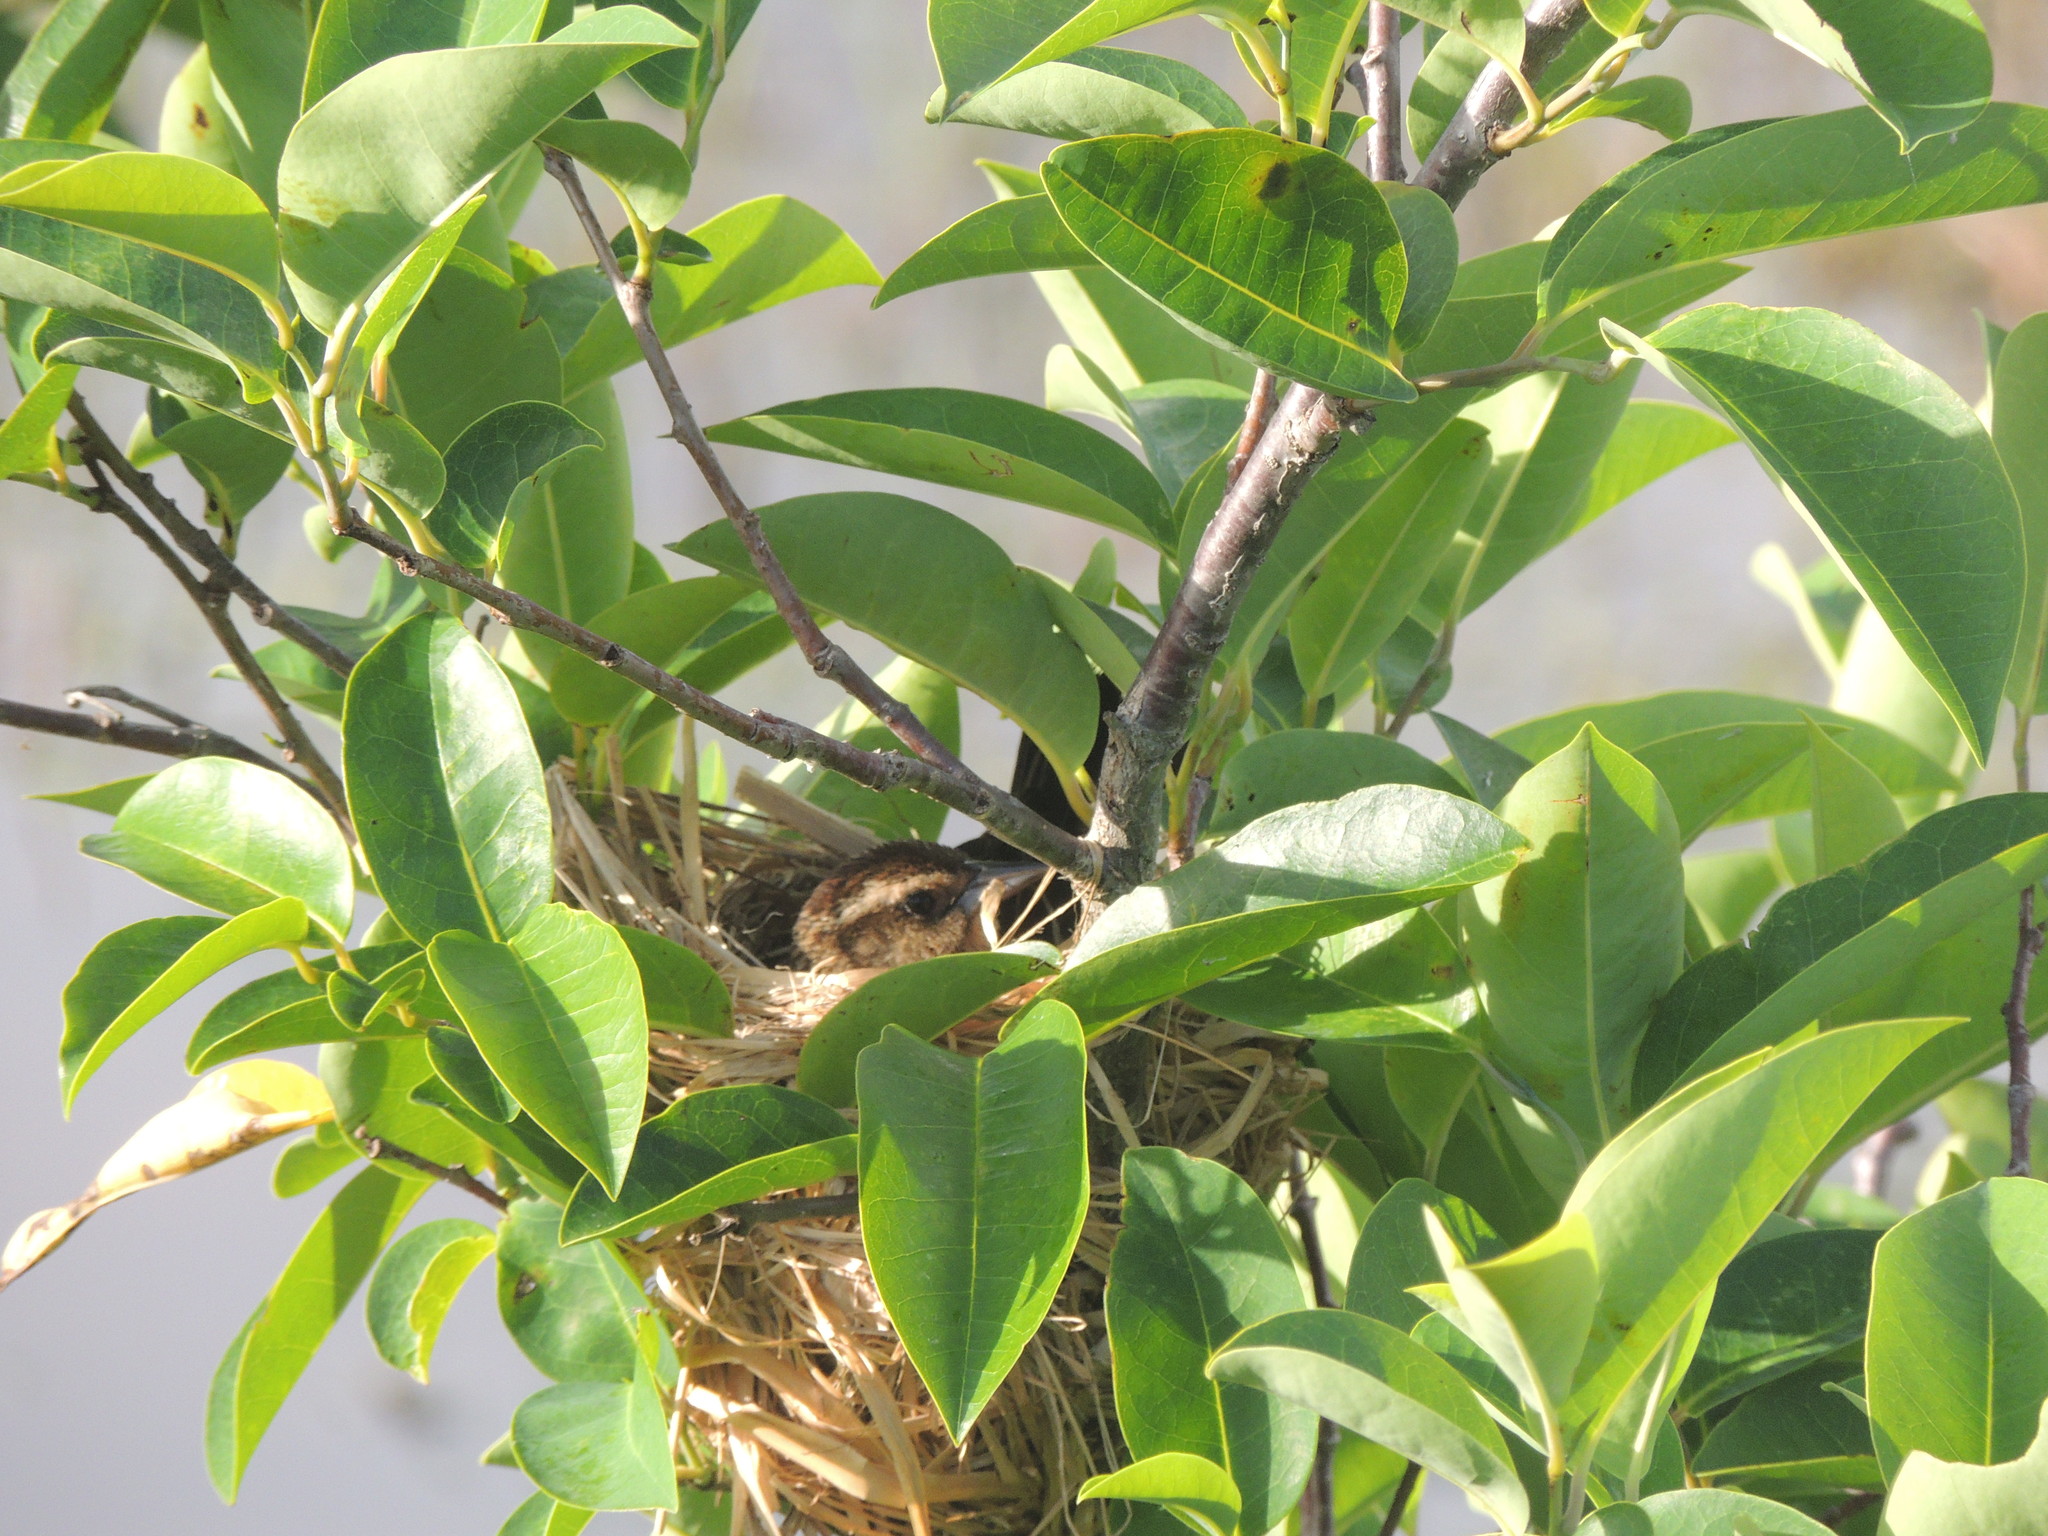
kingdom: Animalia
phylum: Chordata
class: Aves
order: Passeriformes
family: Icteridae
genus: Agelaius
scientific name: Agelaius phoeniceus
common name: Red-winged blackbird
